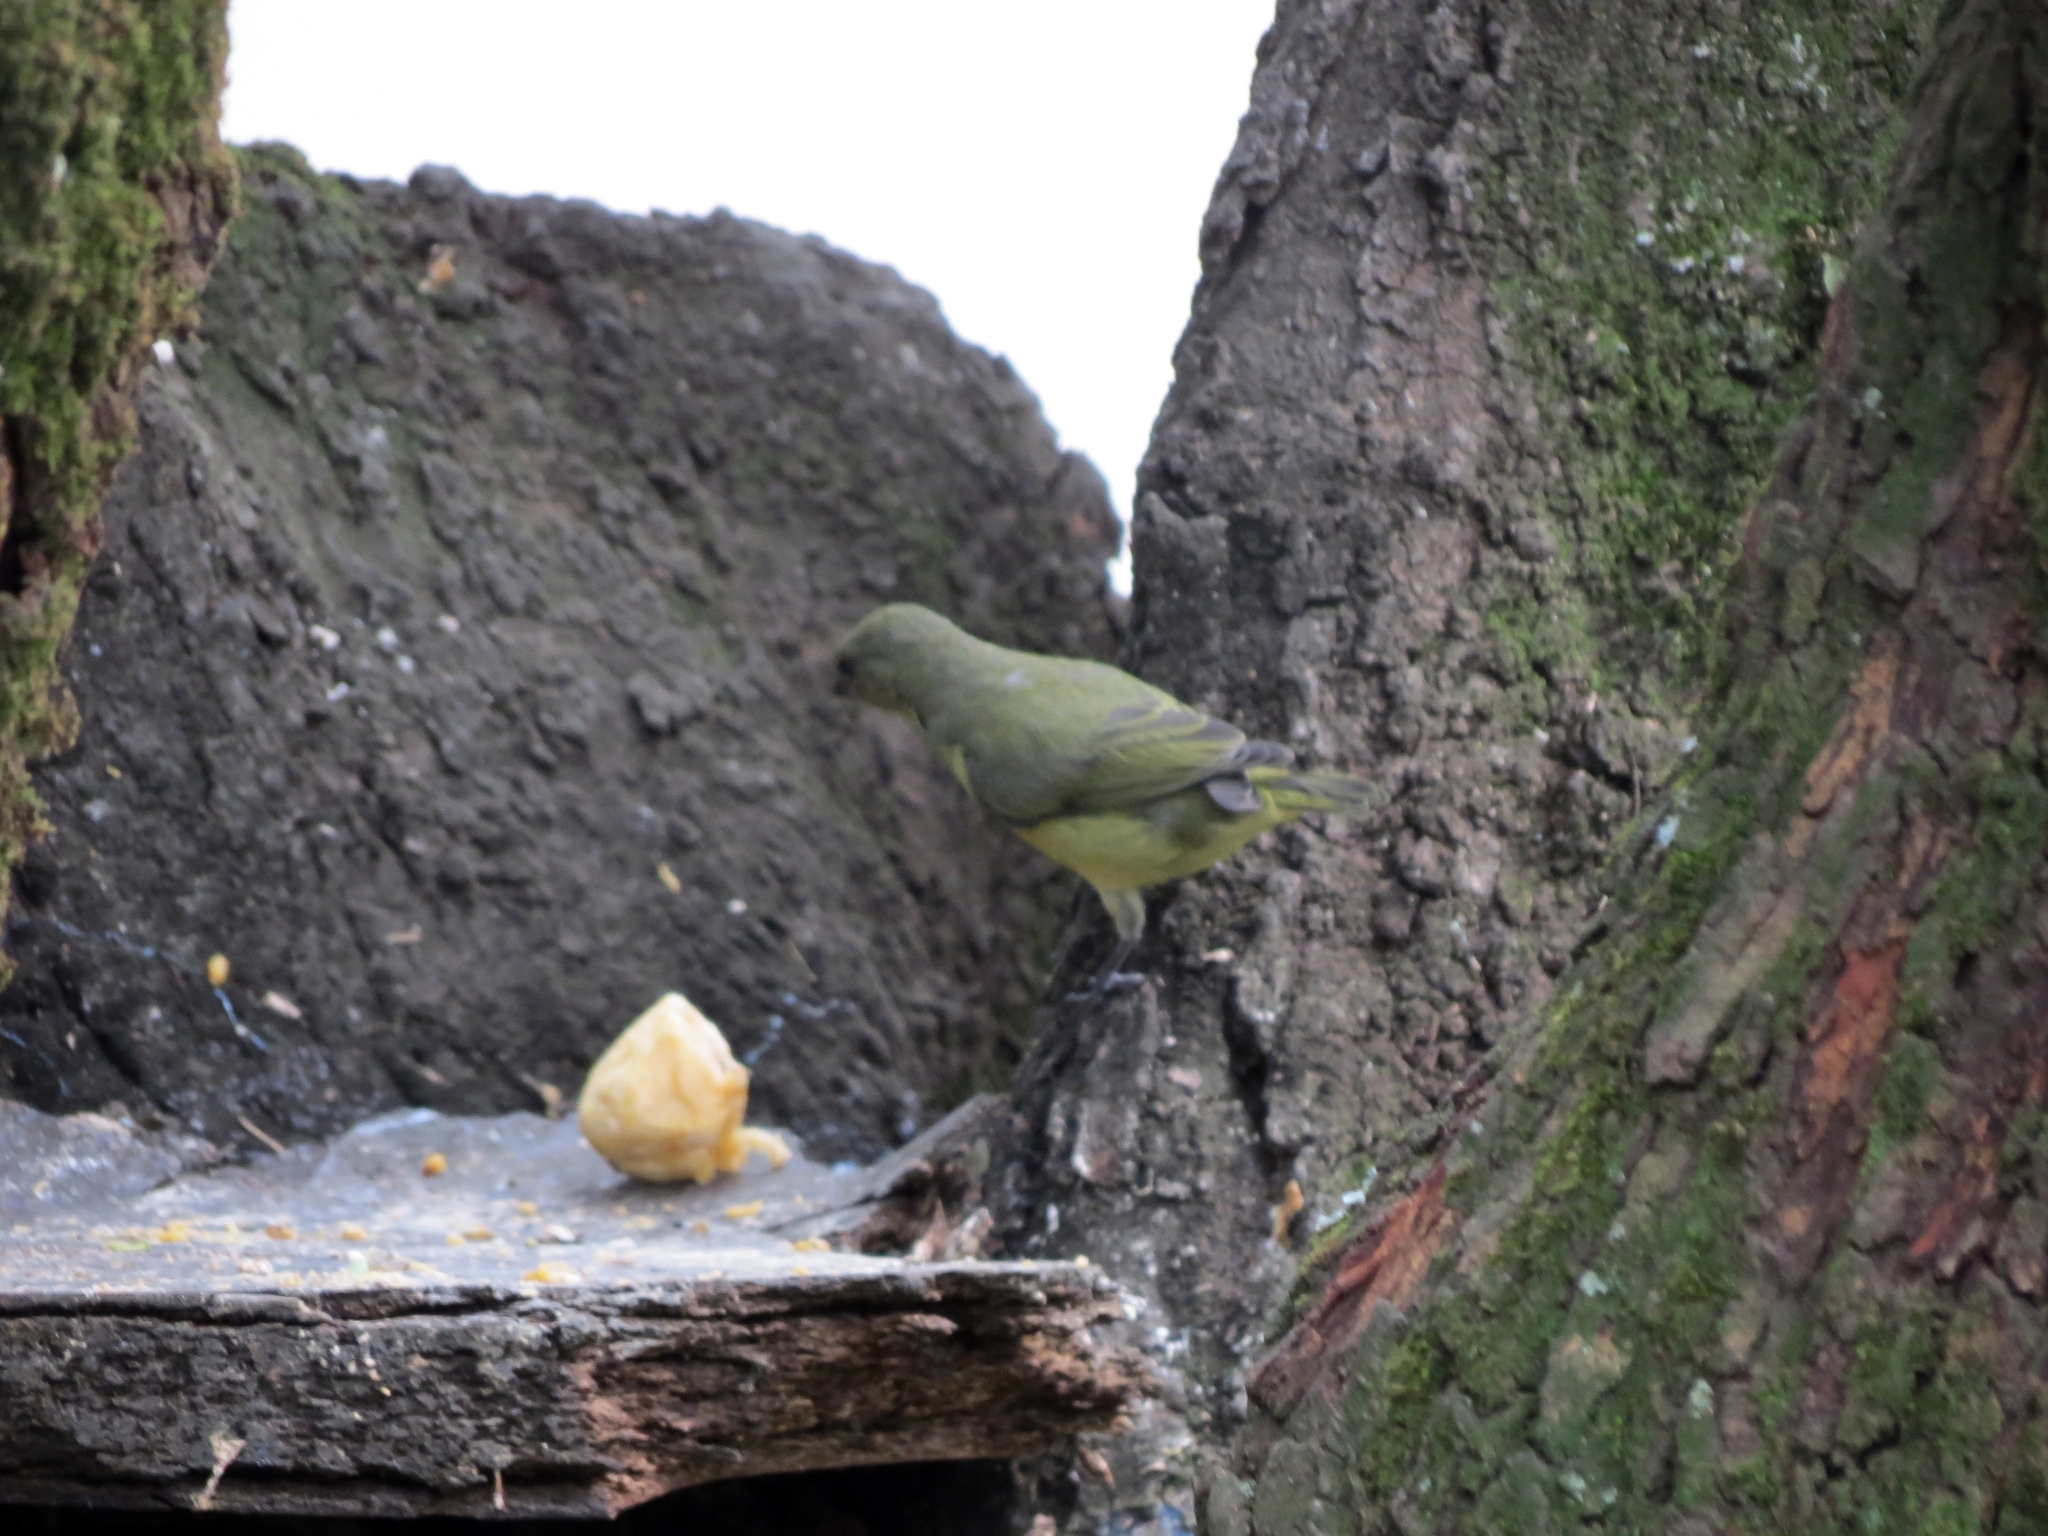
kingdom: Animalia
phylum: Chordata
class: Aves
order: Passeriformes
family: Fringillidae
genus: Euphonia
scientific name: Euphonia laniirostris
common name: Thick-billed euphonia
